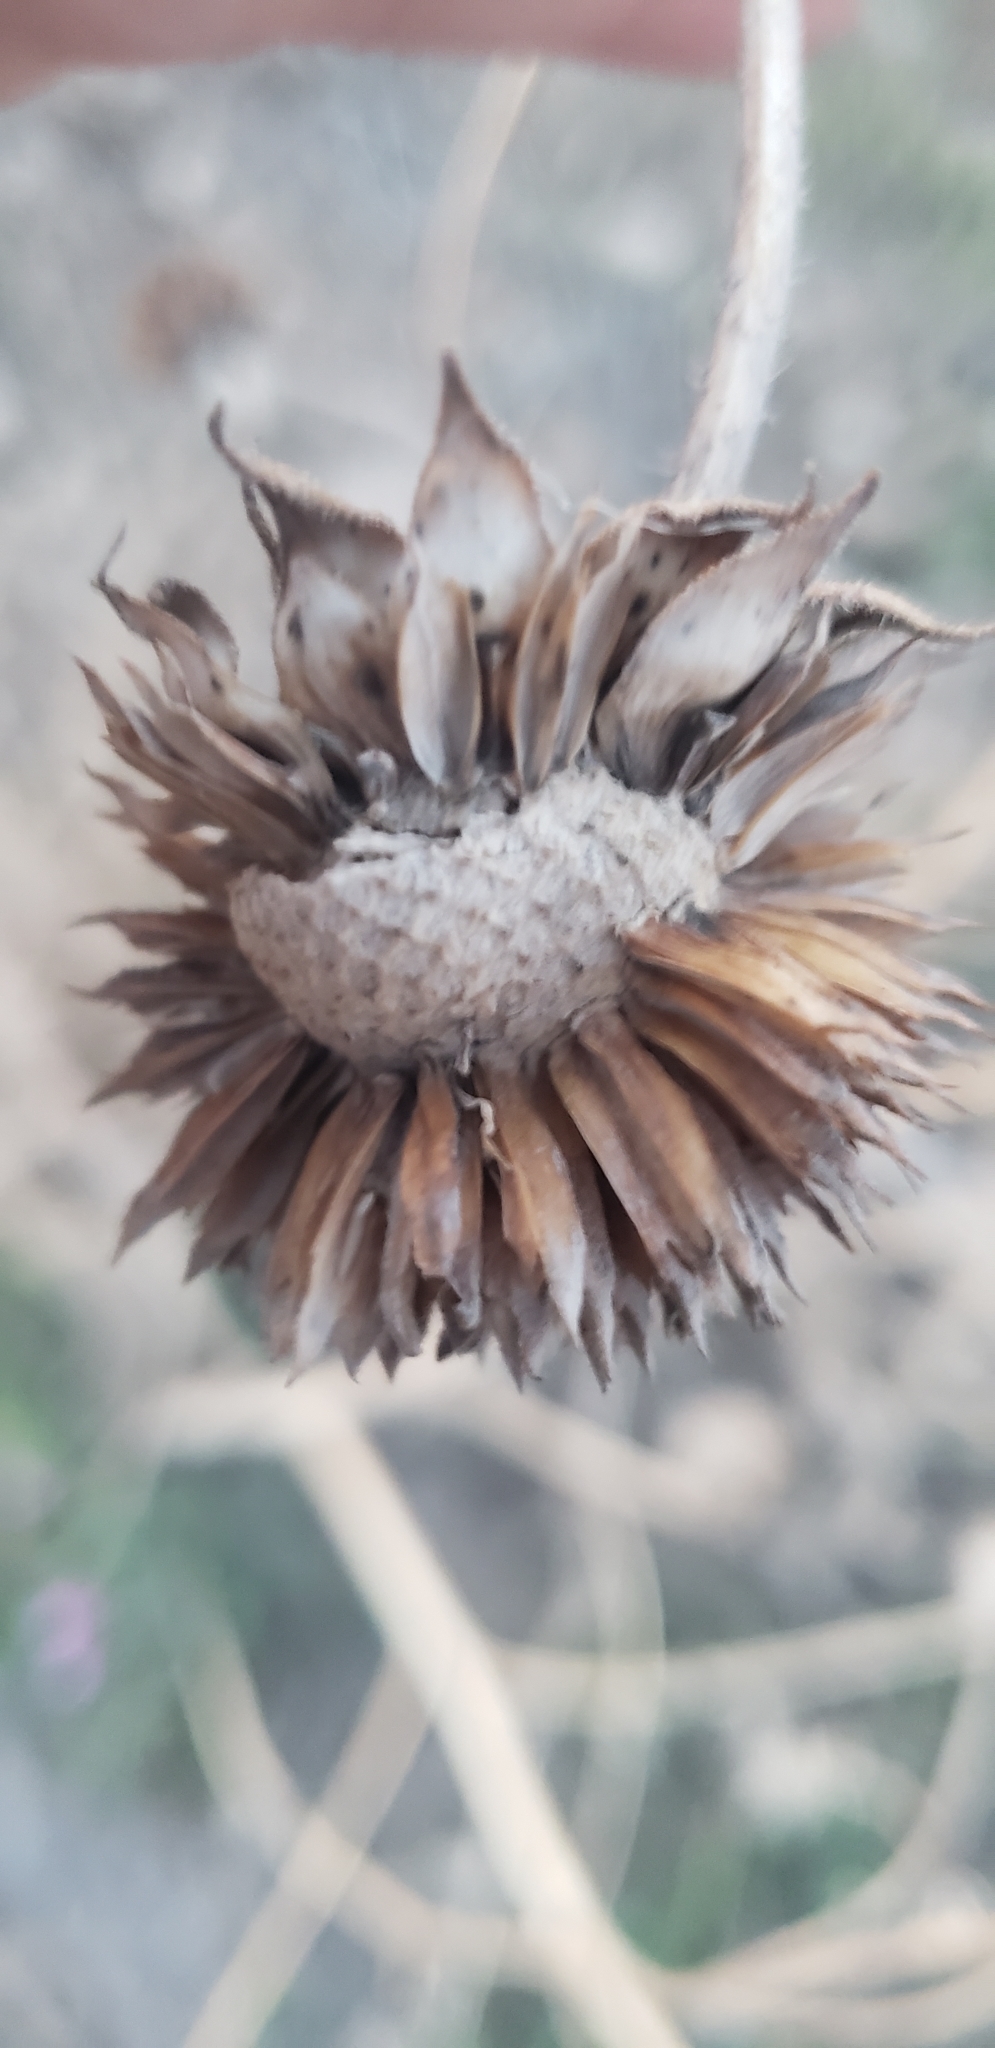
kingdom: Plantae
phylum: Tracheophyta
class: Magnoliopsida
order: Asterales
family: Asteraceae
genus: Helianthus
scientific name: Helianthus annuus
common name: Sunflower
